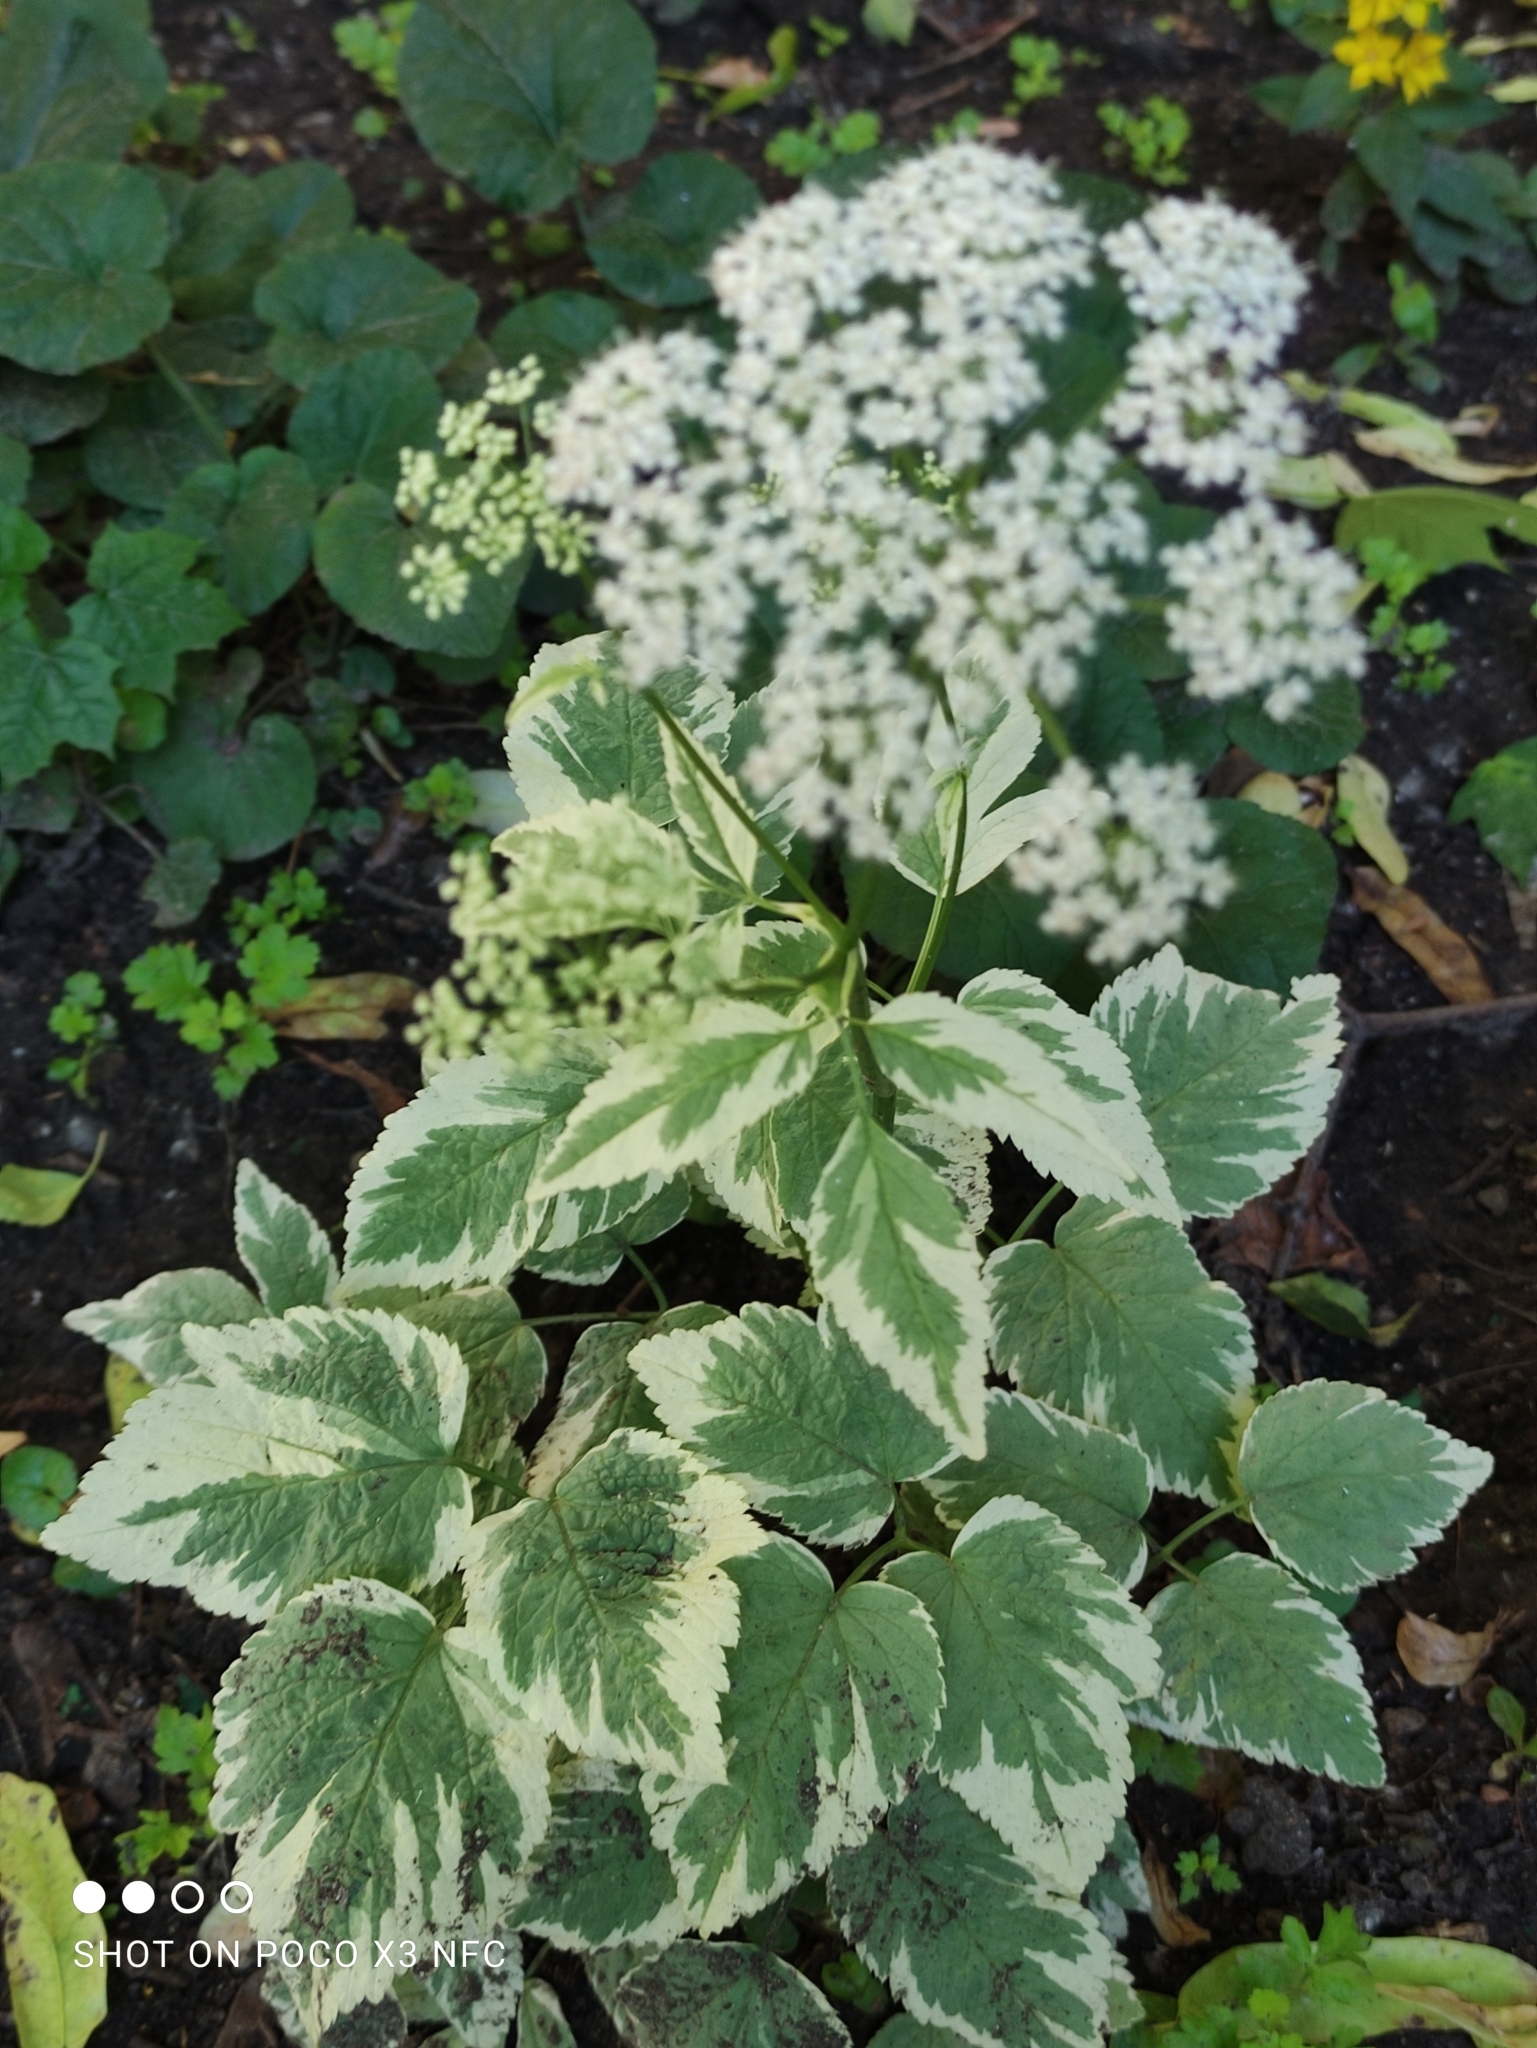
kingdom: Plantae
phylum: Tracheophyta
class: Magnoliopsida
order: Apiales
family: Apiaceae
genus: Aegopodium
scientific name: Aegopodium podagraria
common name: Ground-elder
